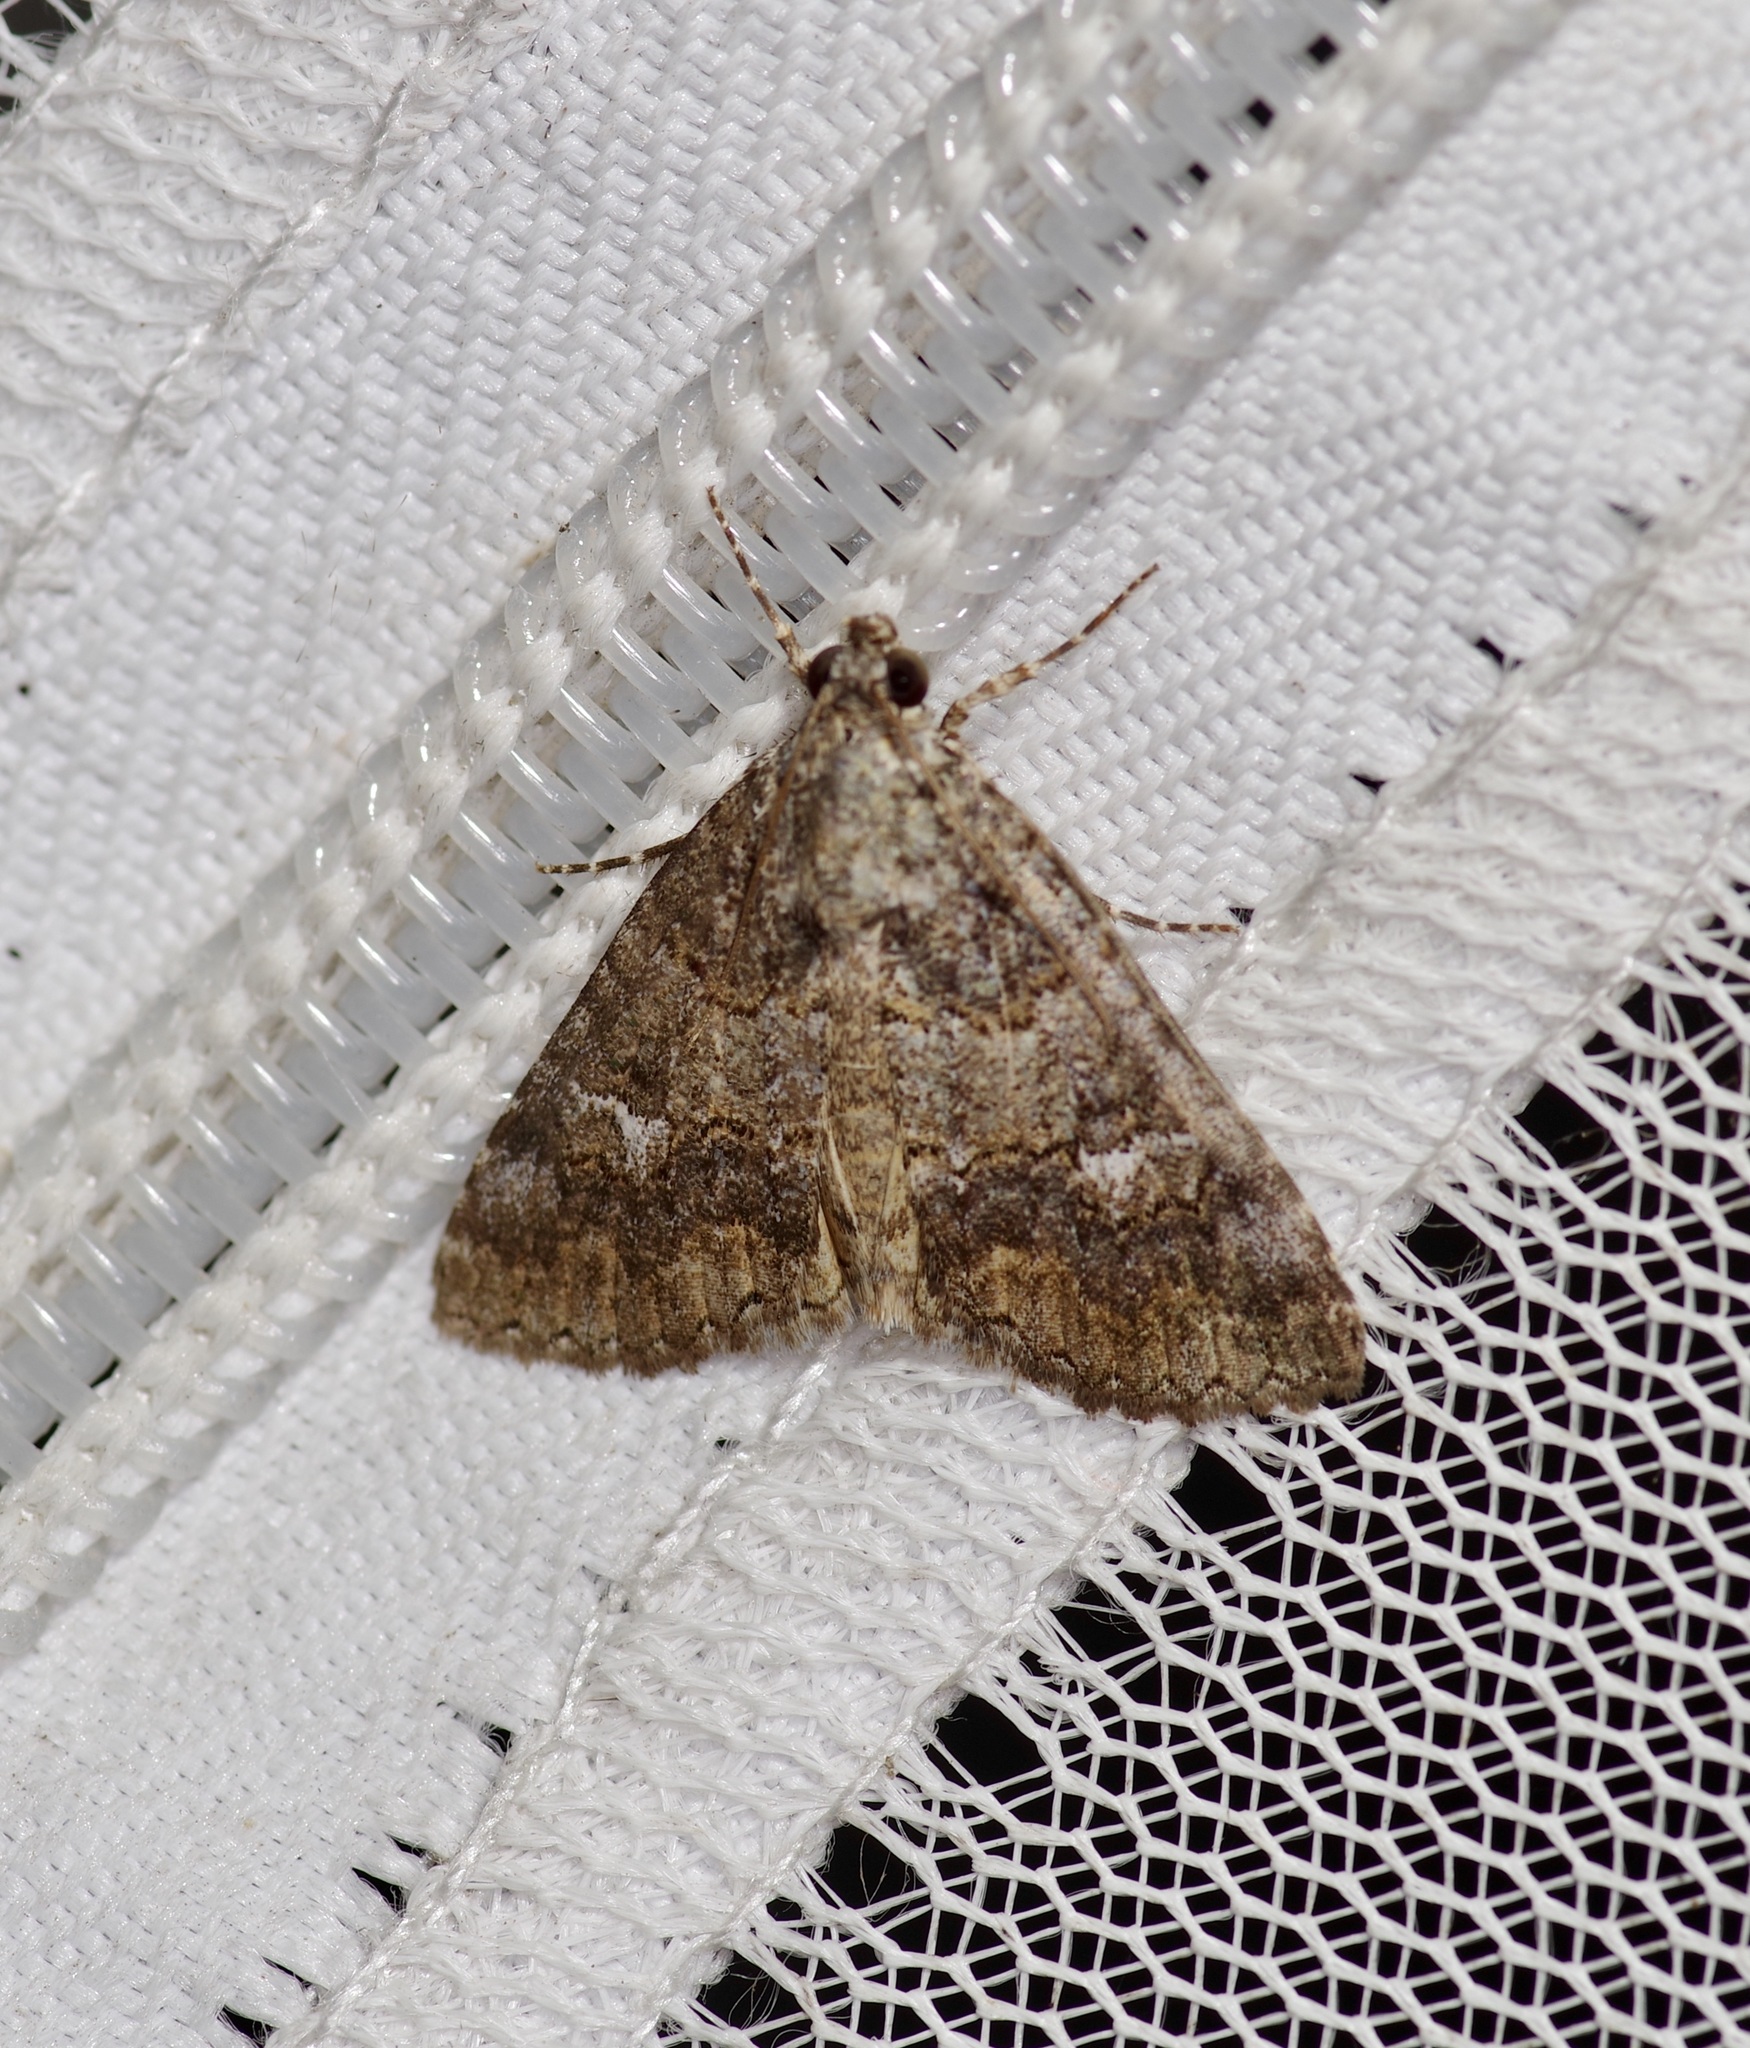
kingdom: Animalia
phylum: Arthropoda
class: Insecta
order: Lepidoptera
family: Erebidae
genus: Eubolina
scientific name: Eubolina impartialis
